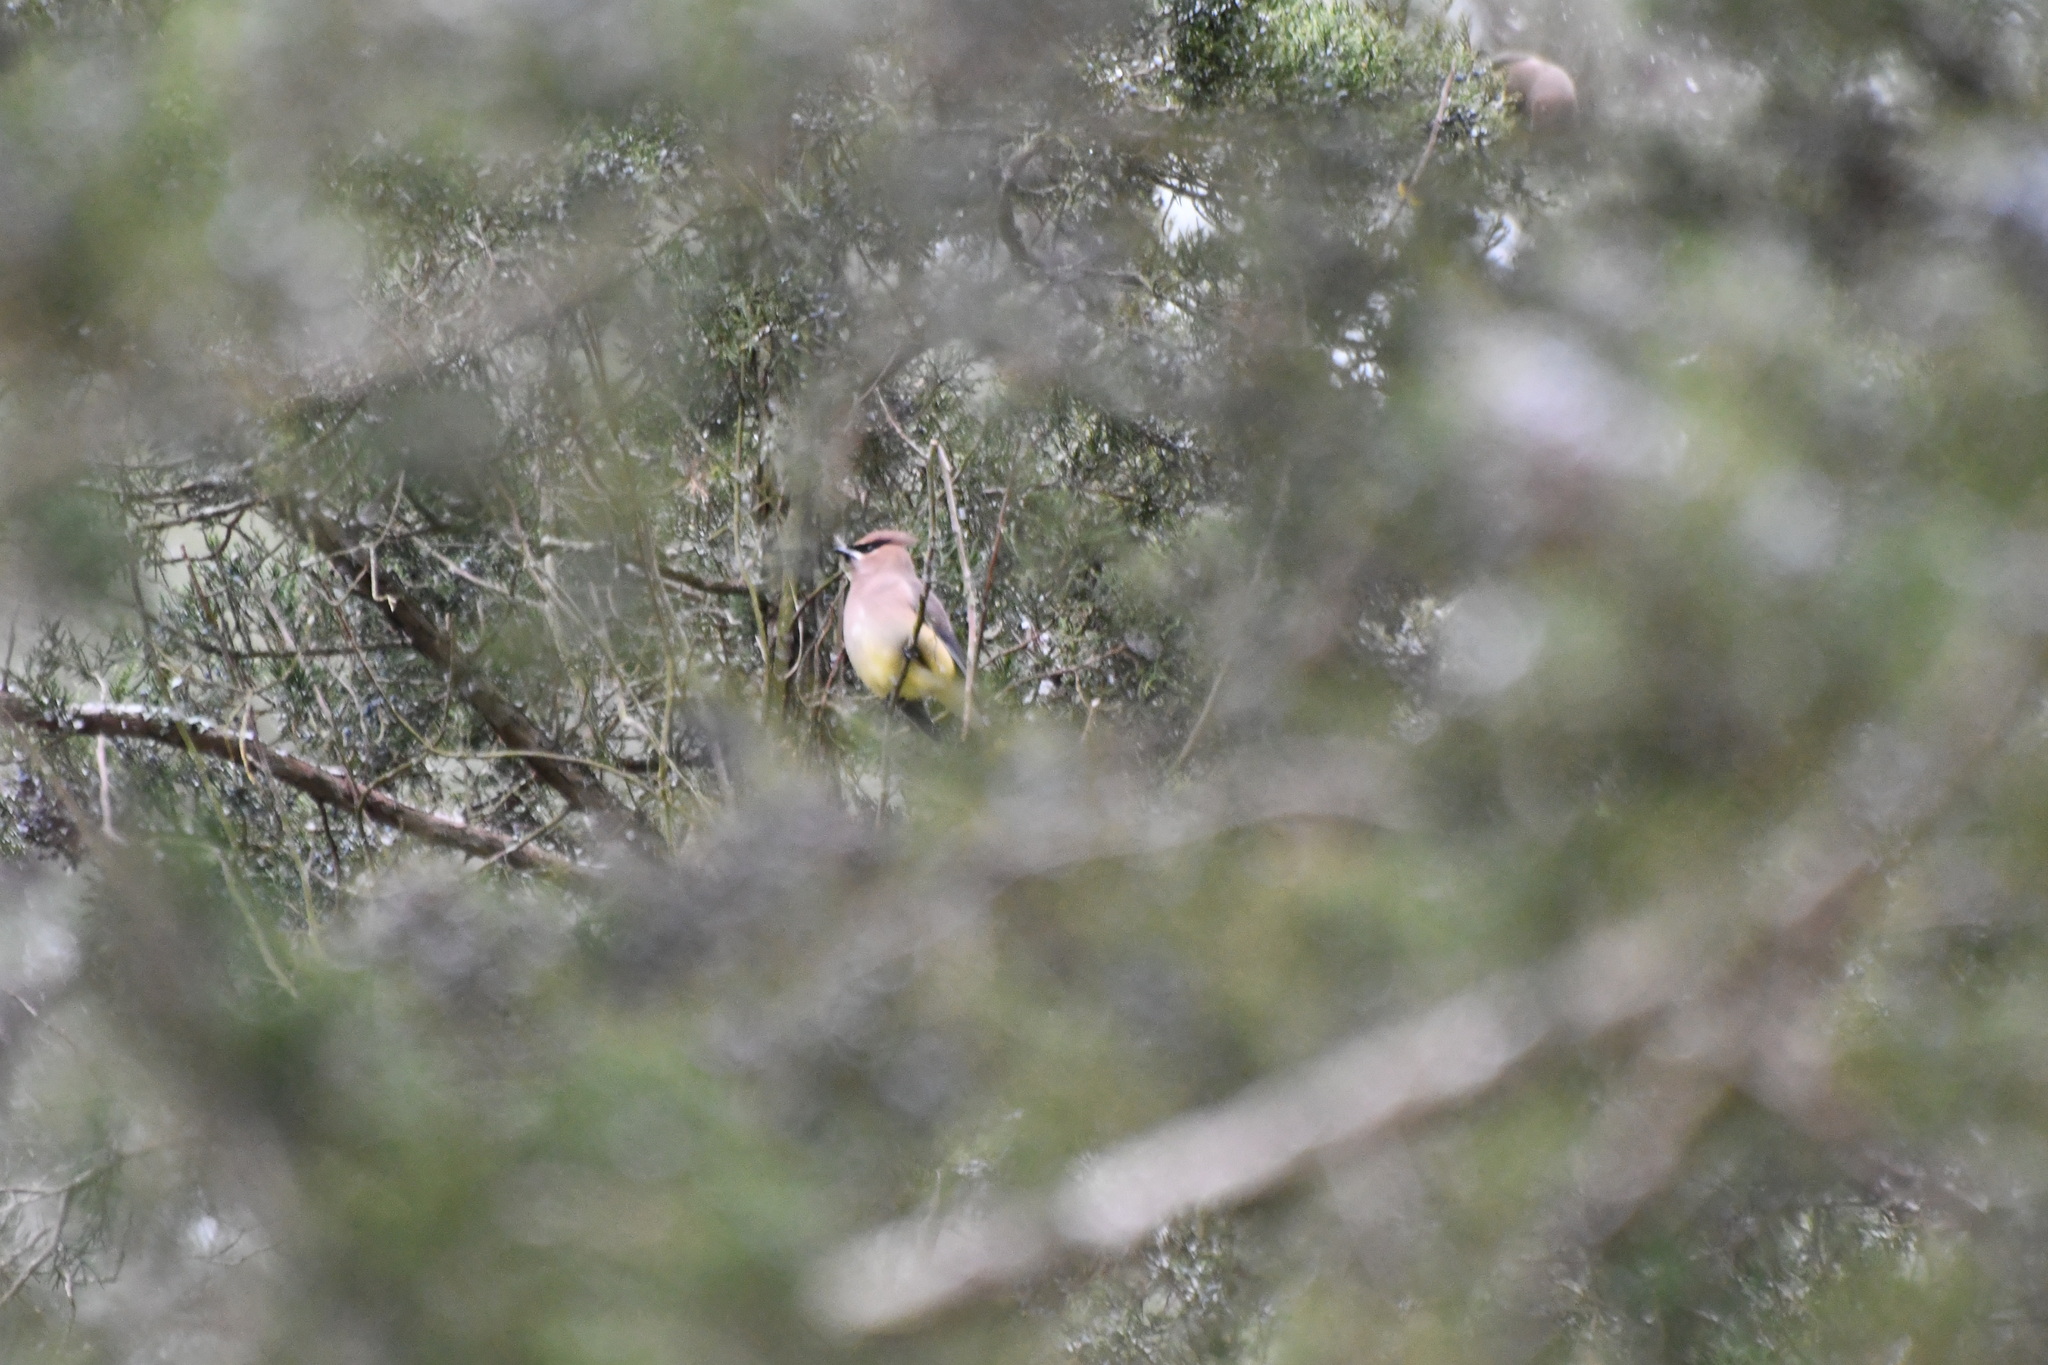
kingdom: Animalia
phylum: Chordata
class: Aves
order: Passeriformes
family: Bombycillidae
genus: Bombycilla
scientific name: Bombycilla cedrorum
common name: Cedar waxwing
